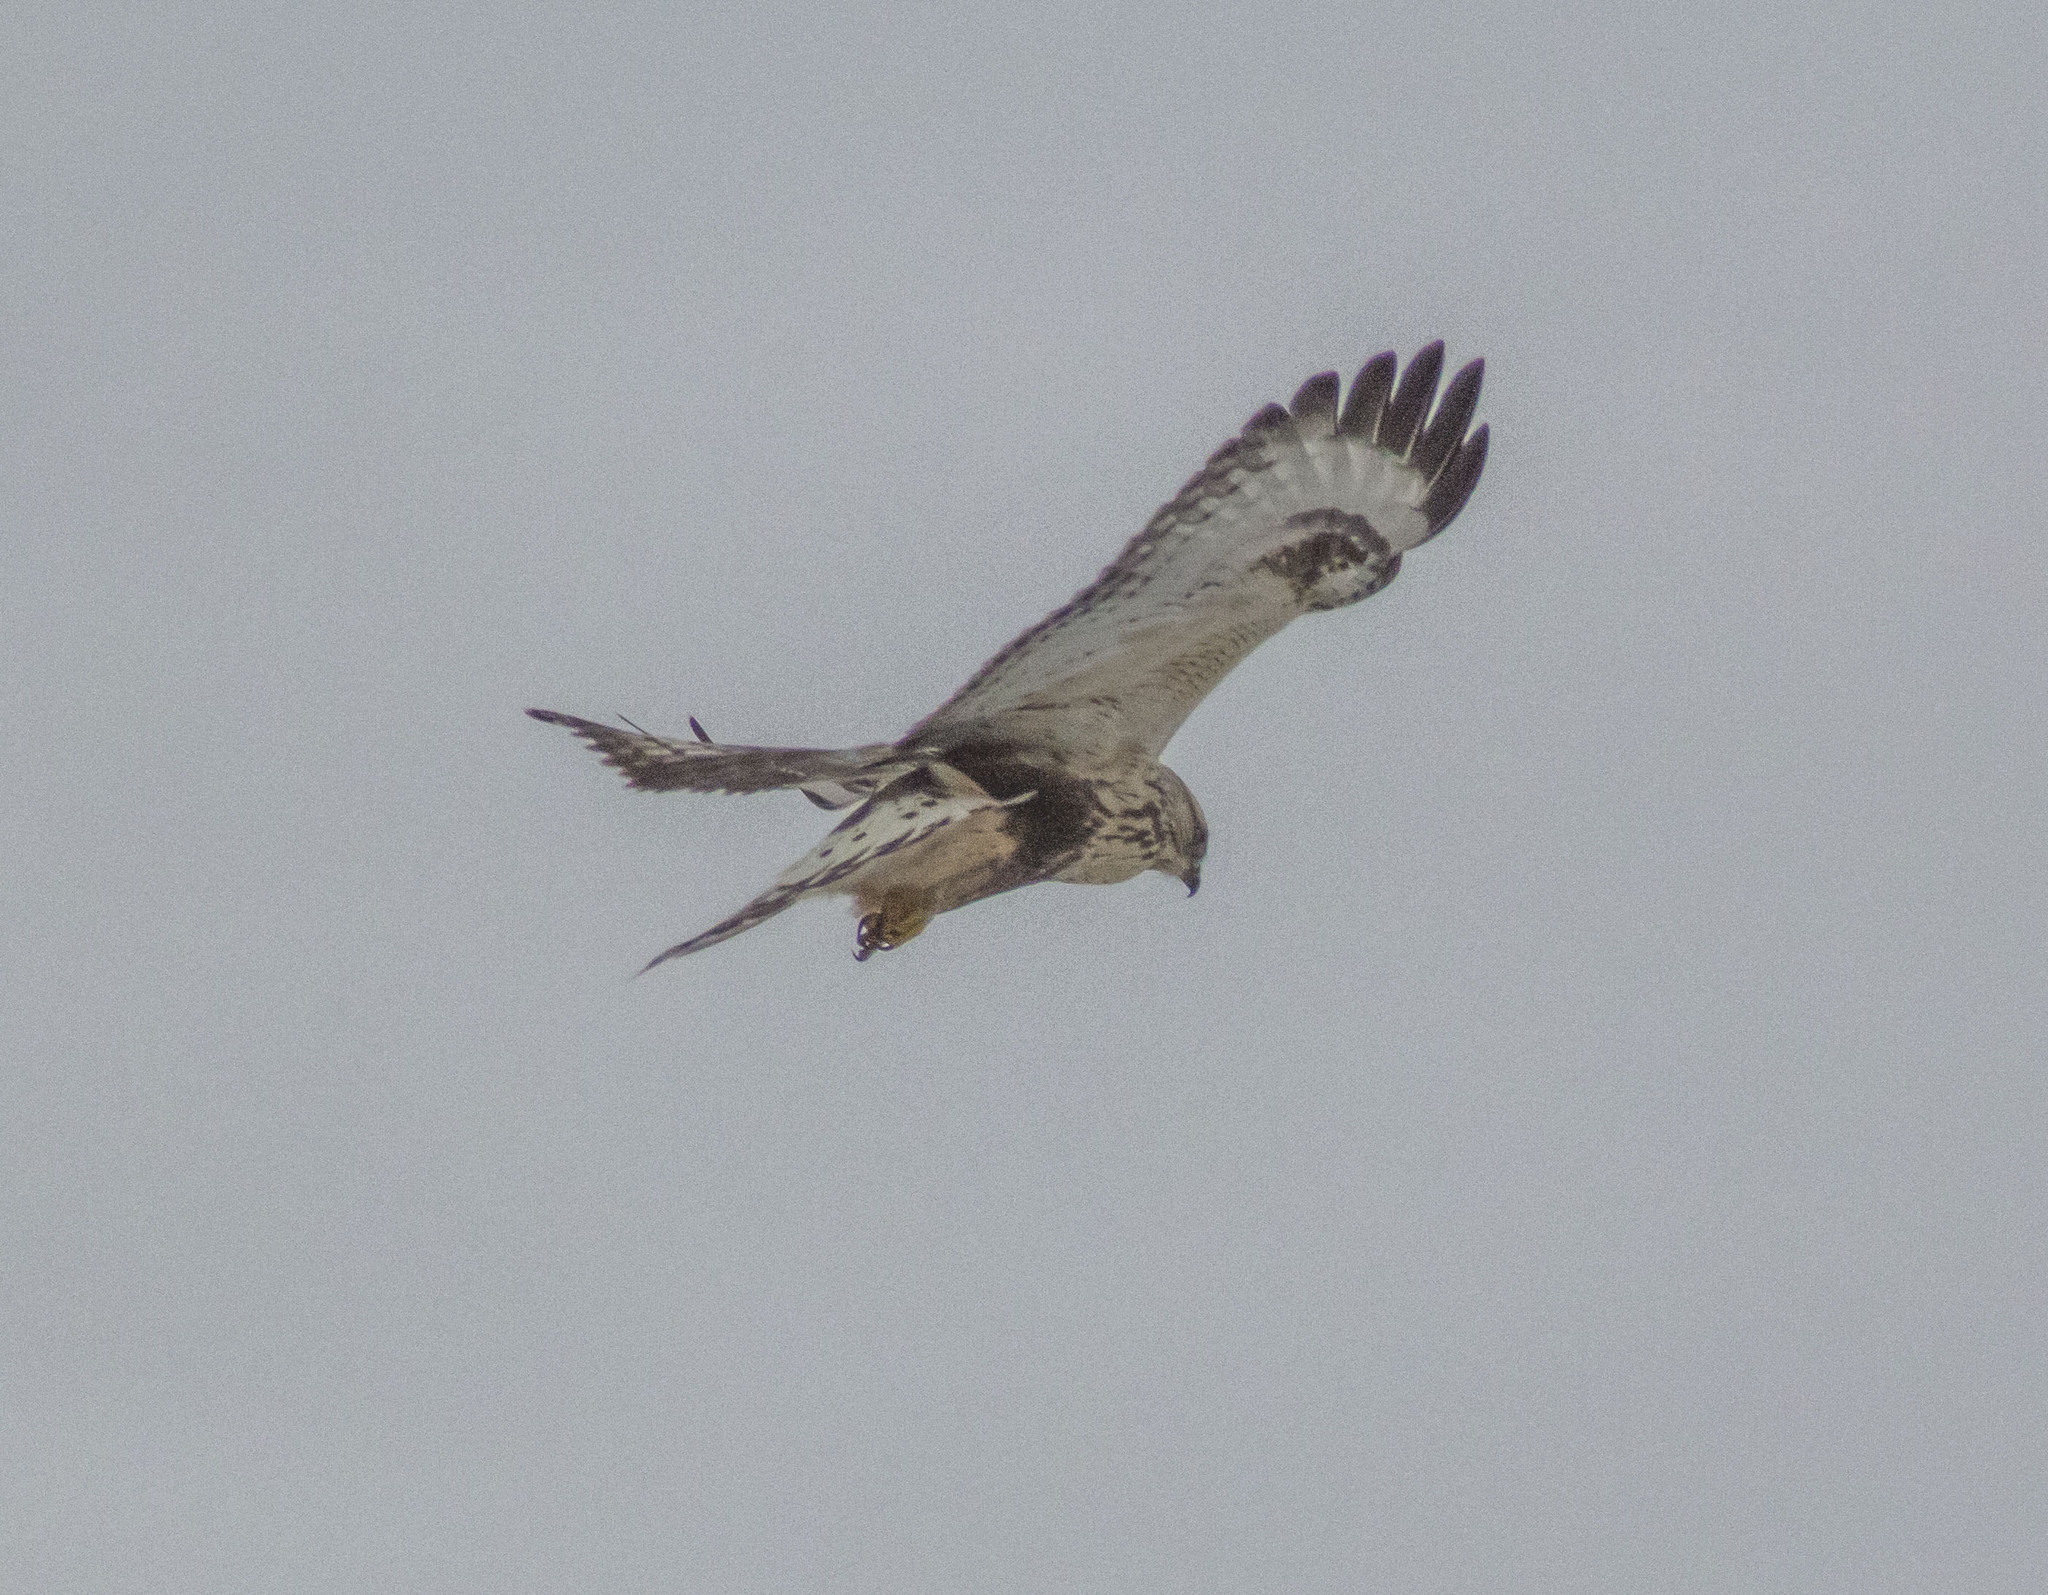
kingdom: Animalia
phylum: Chordata
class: Aves
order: Accipitriformes
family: Accipitridae
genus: Buteo
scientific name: Buteo lagopus
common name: Rough-legged buzzard
